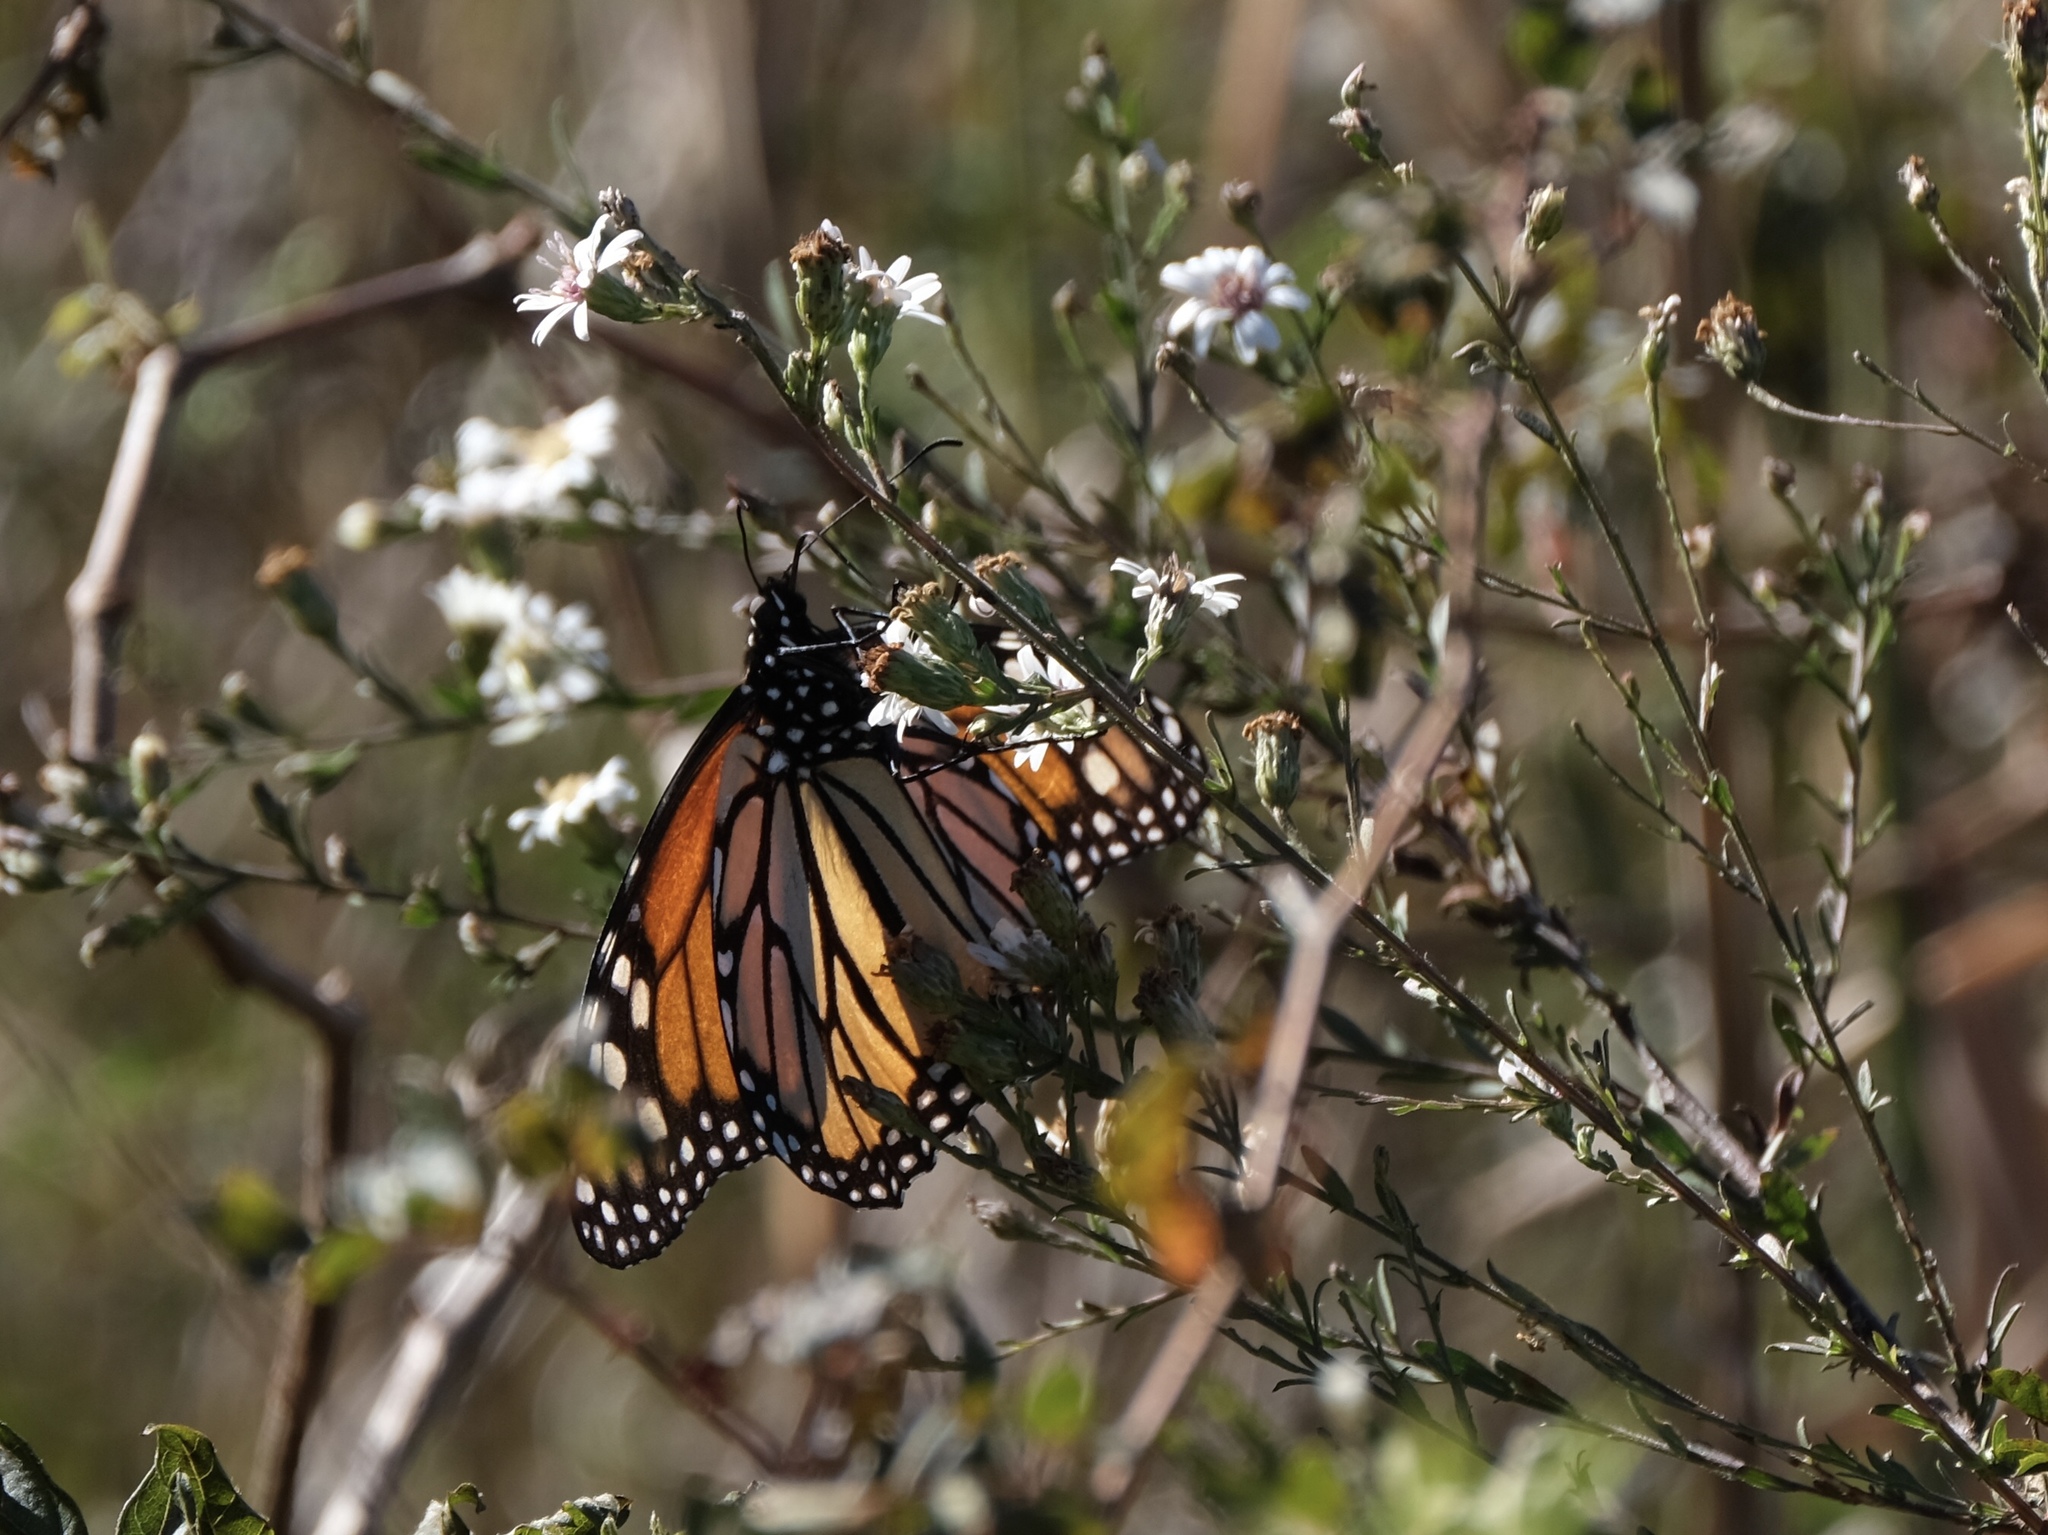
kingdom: Animalia
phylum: Arthropoda
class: Insecta
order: Lepidoptera
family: Nymphalidae
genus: Danaus
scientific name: Danaus plexippus
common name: Monarch
